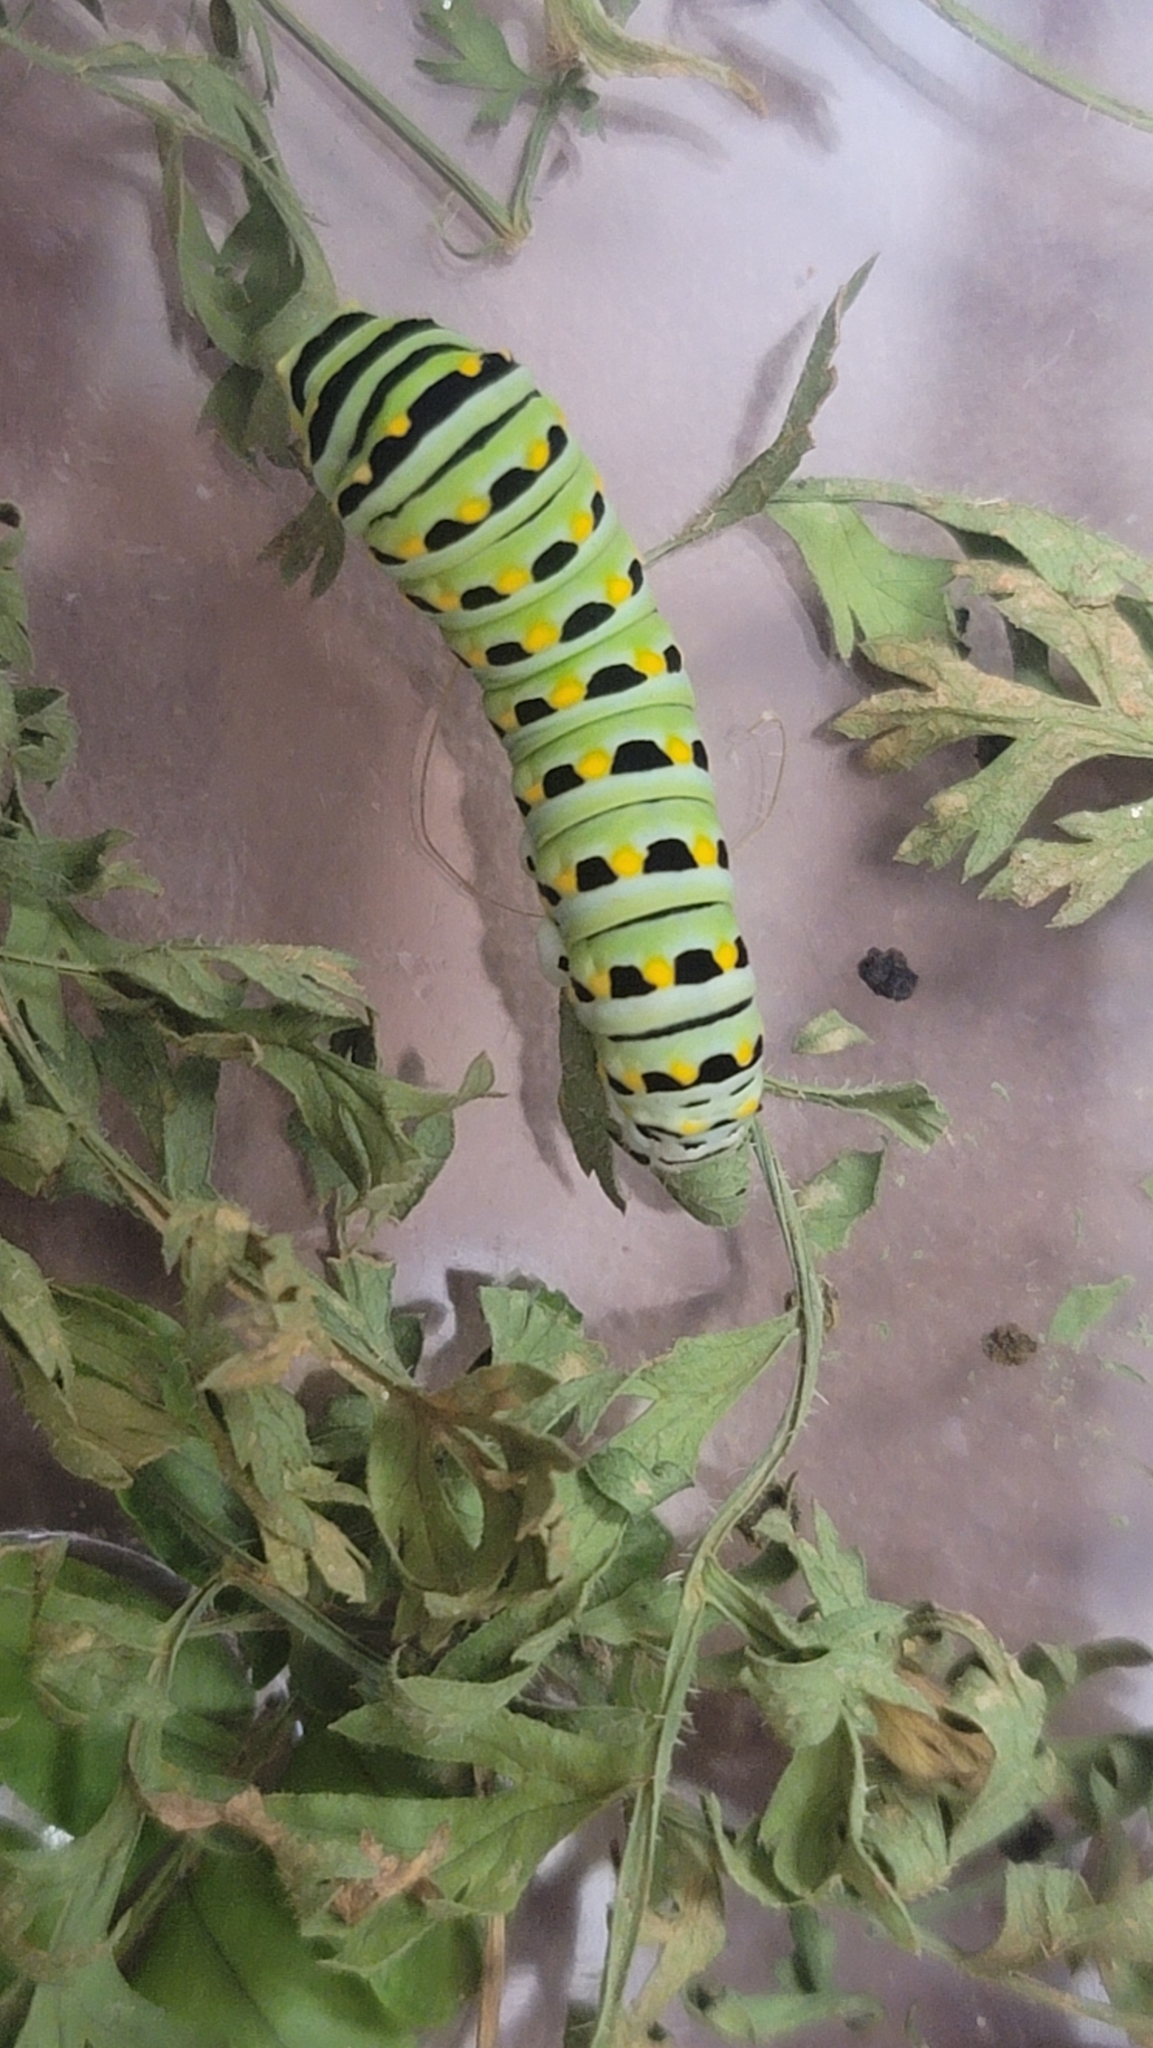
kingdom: Animalia
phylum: Arthropoda
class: Insecta
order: Lepidoptera
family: Papilionidae
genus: Papilio
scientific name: Papilio polyxenes
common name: Black swallowtail
